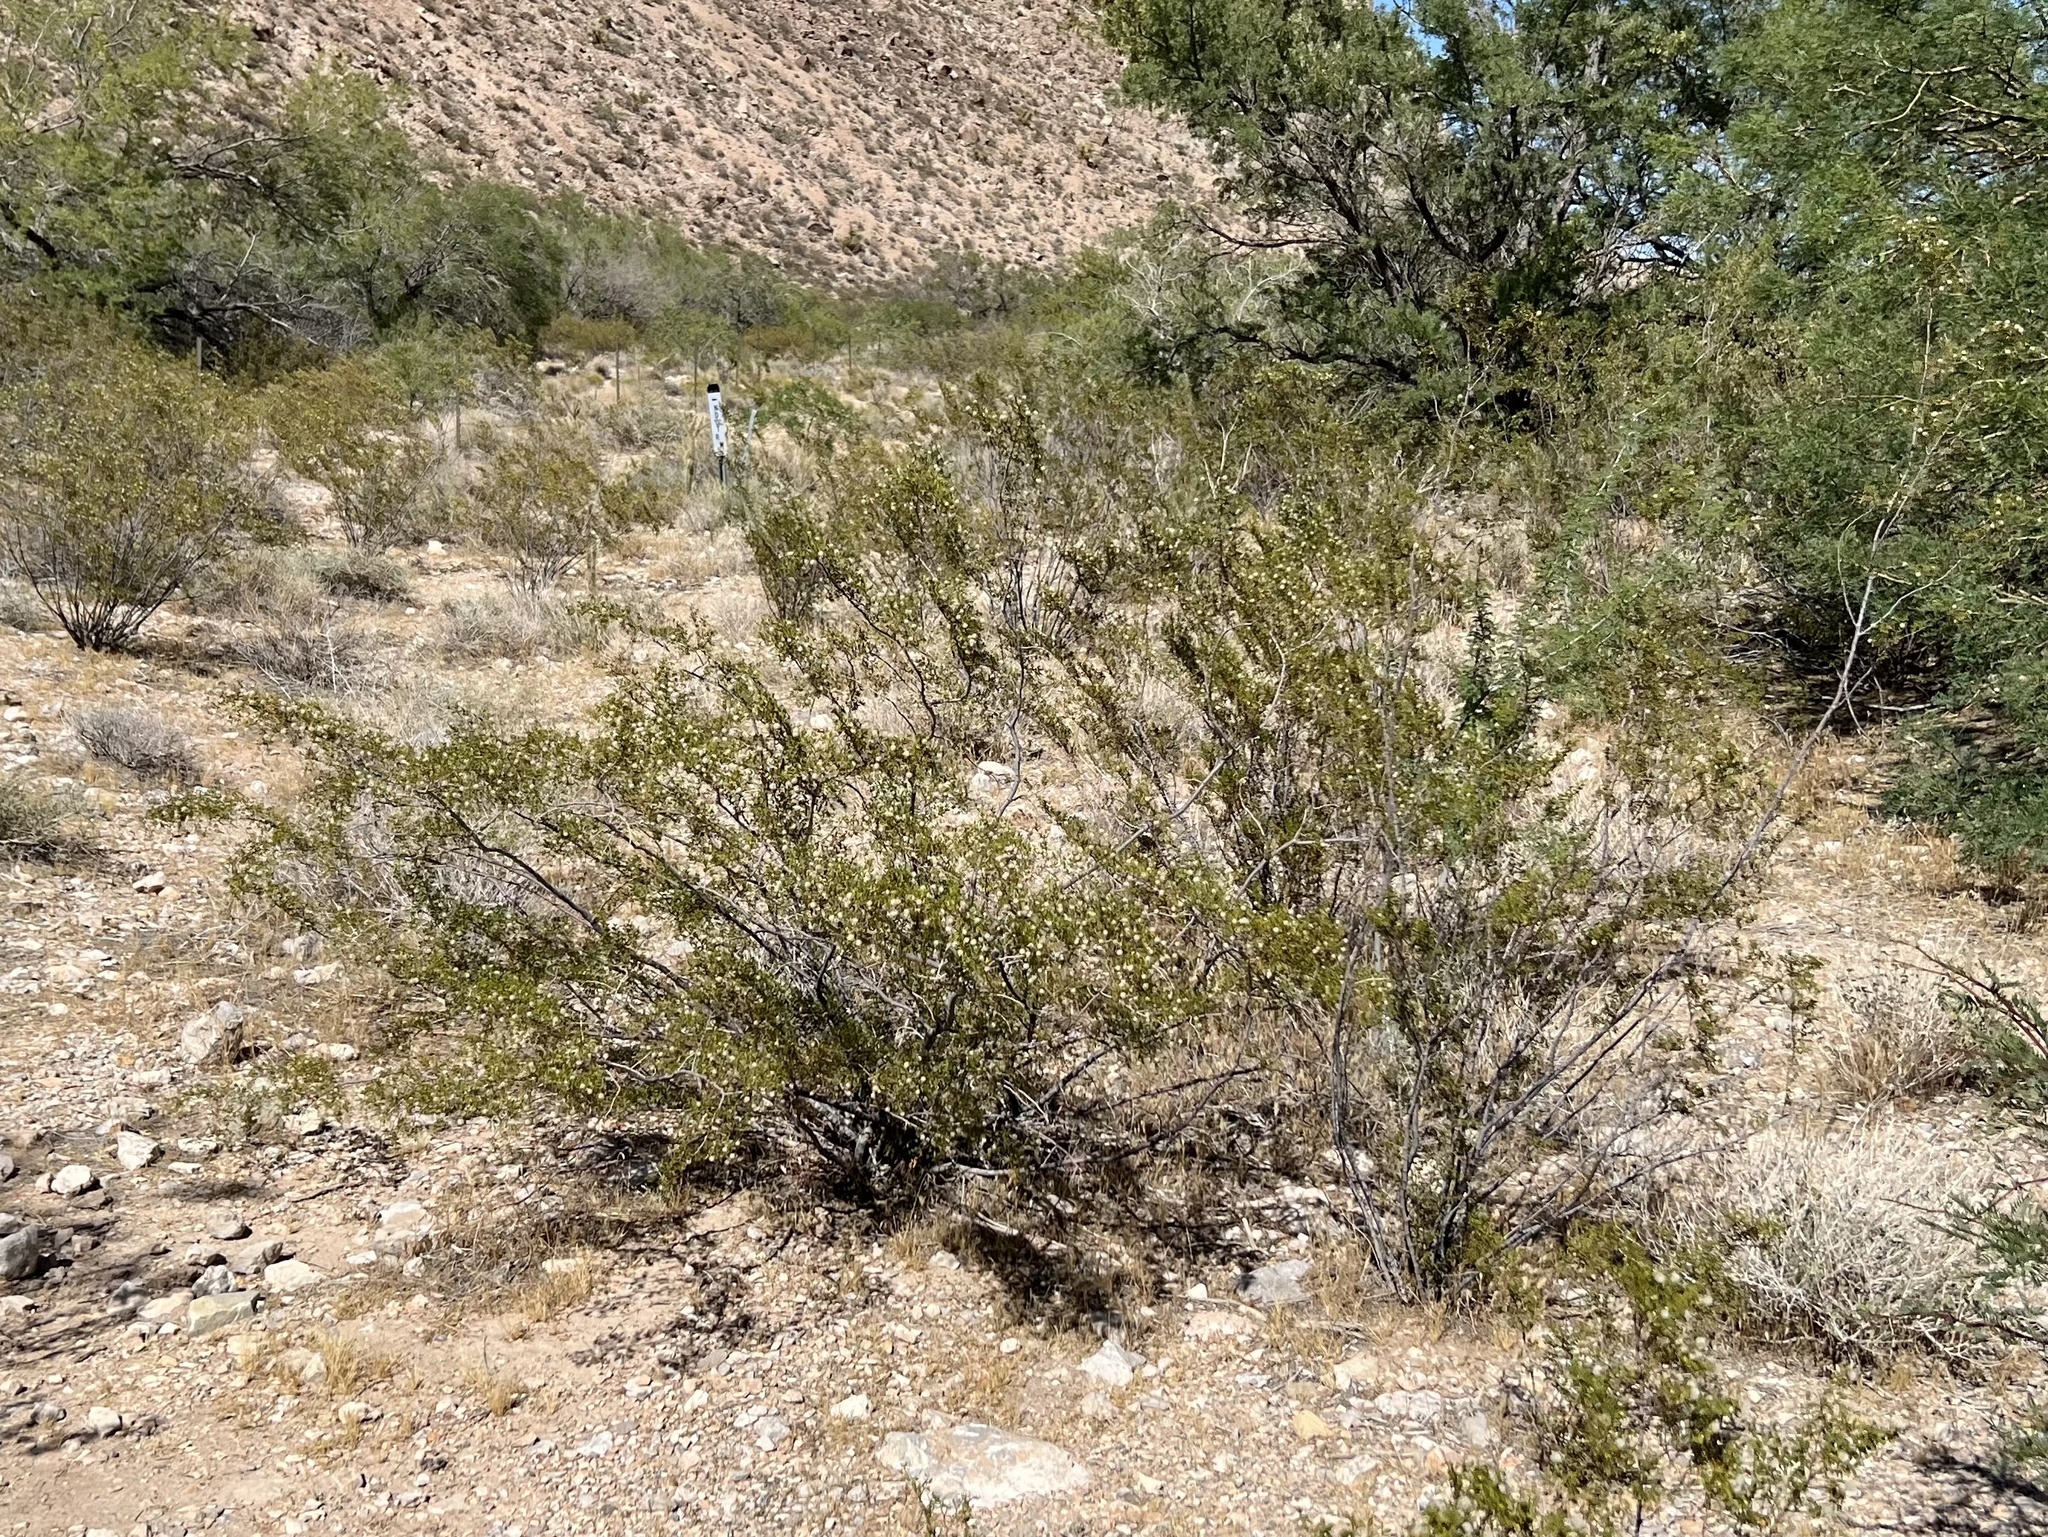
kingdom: Plantae
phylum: Tracheophyta
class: Magnoliopsida
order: Zygophyllales
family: Zygophyllaceae
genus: Larrea
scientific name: Larrea tridentata
